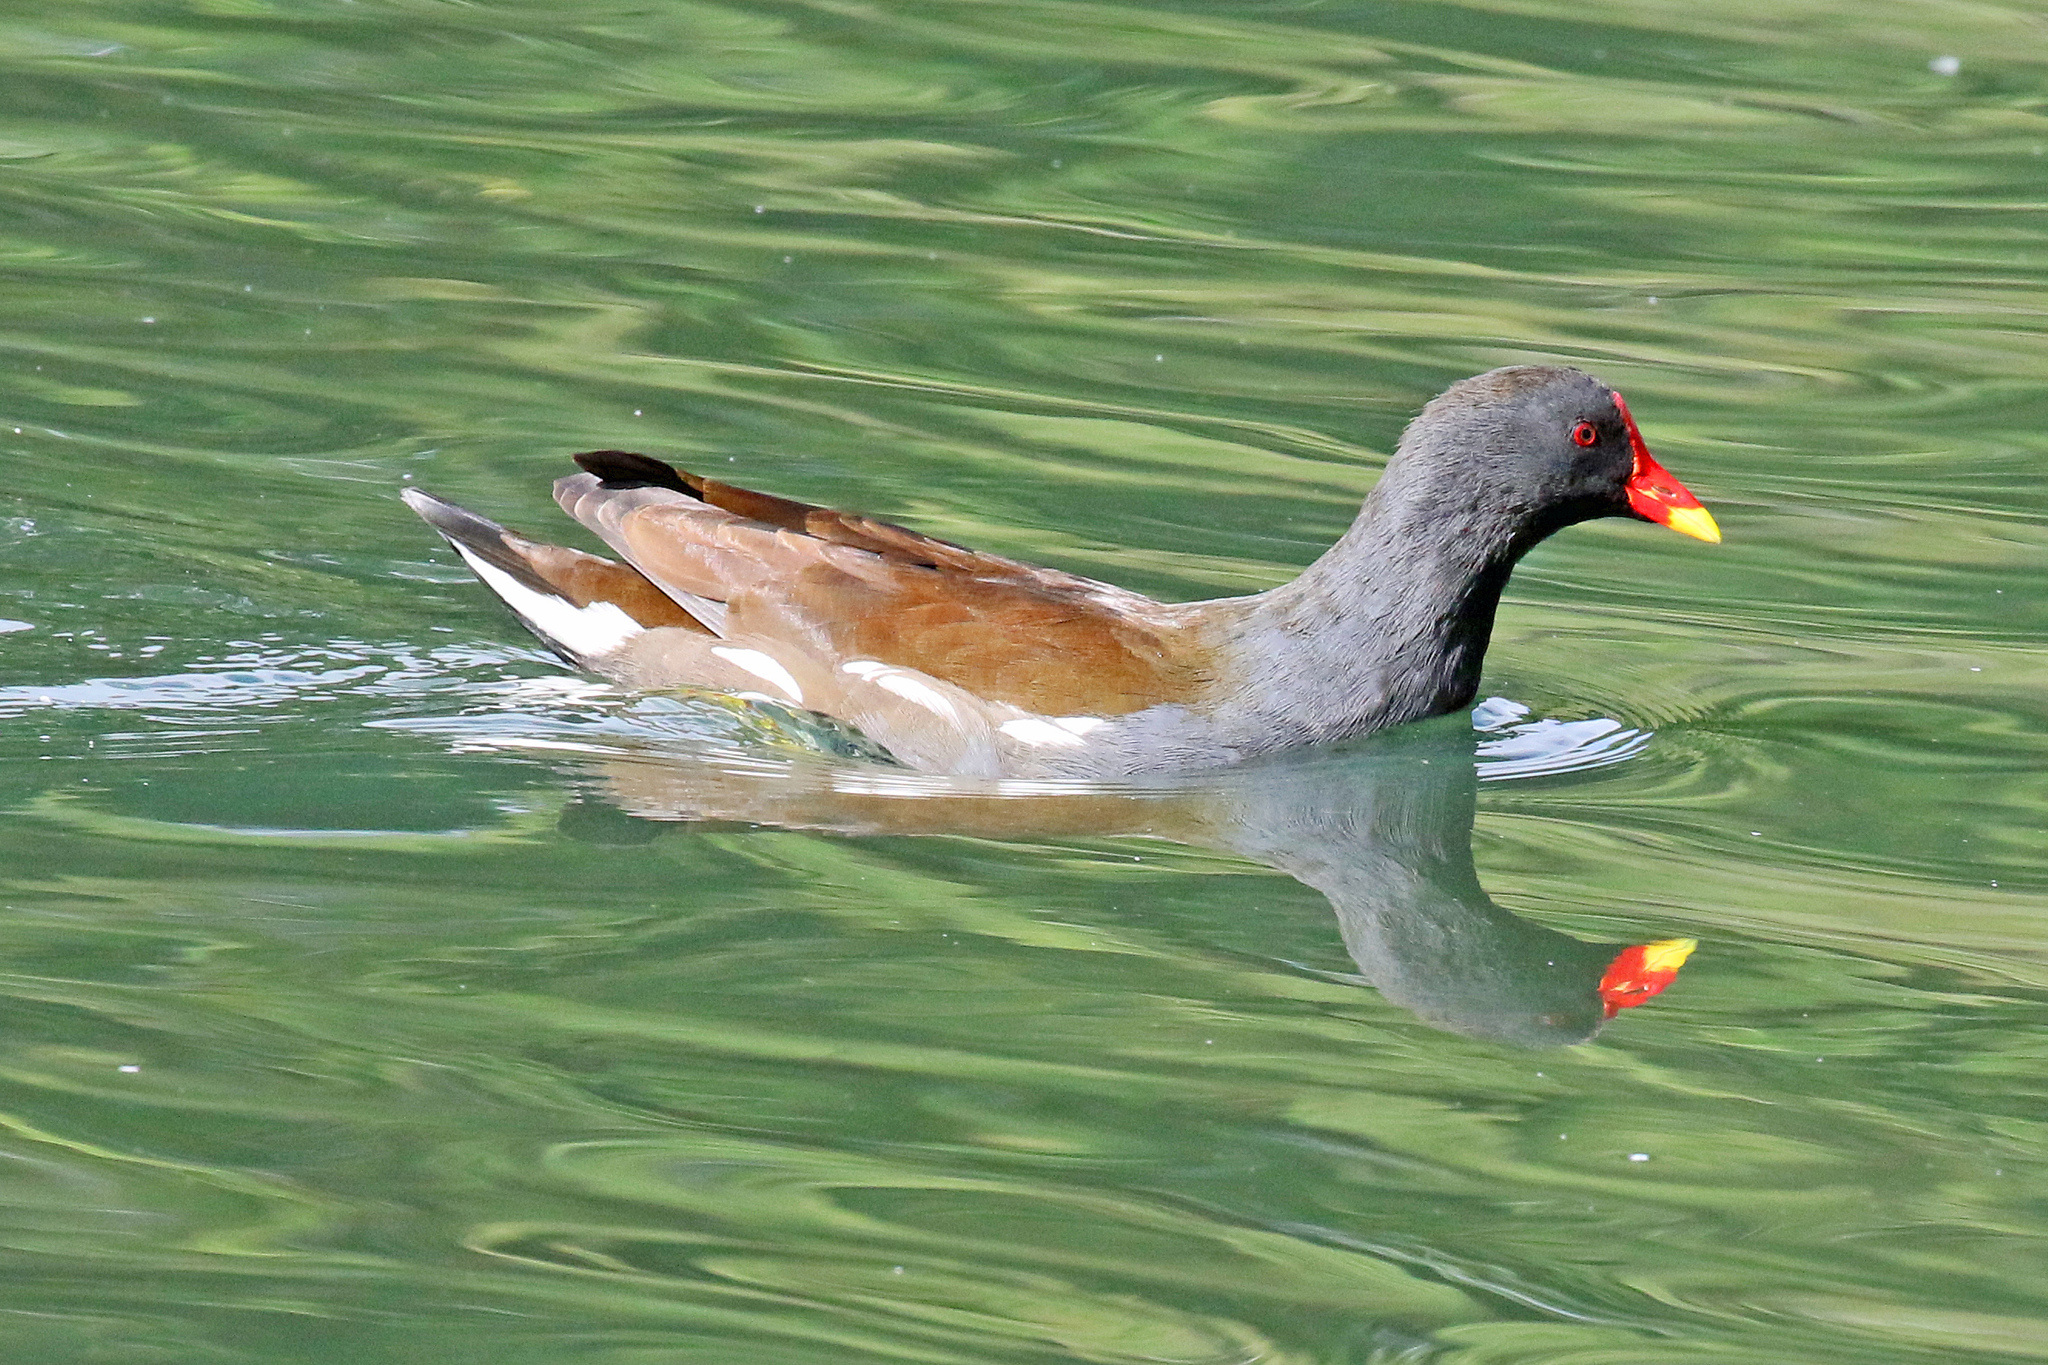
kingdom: Animalia
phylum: Chordata
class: Aves
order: Gruiformes
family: Rallidae
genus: Gallinula
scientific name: Gallinula chloropus
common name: Common moorhen
